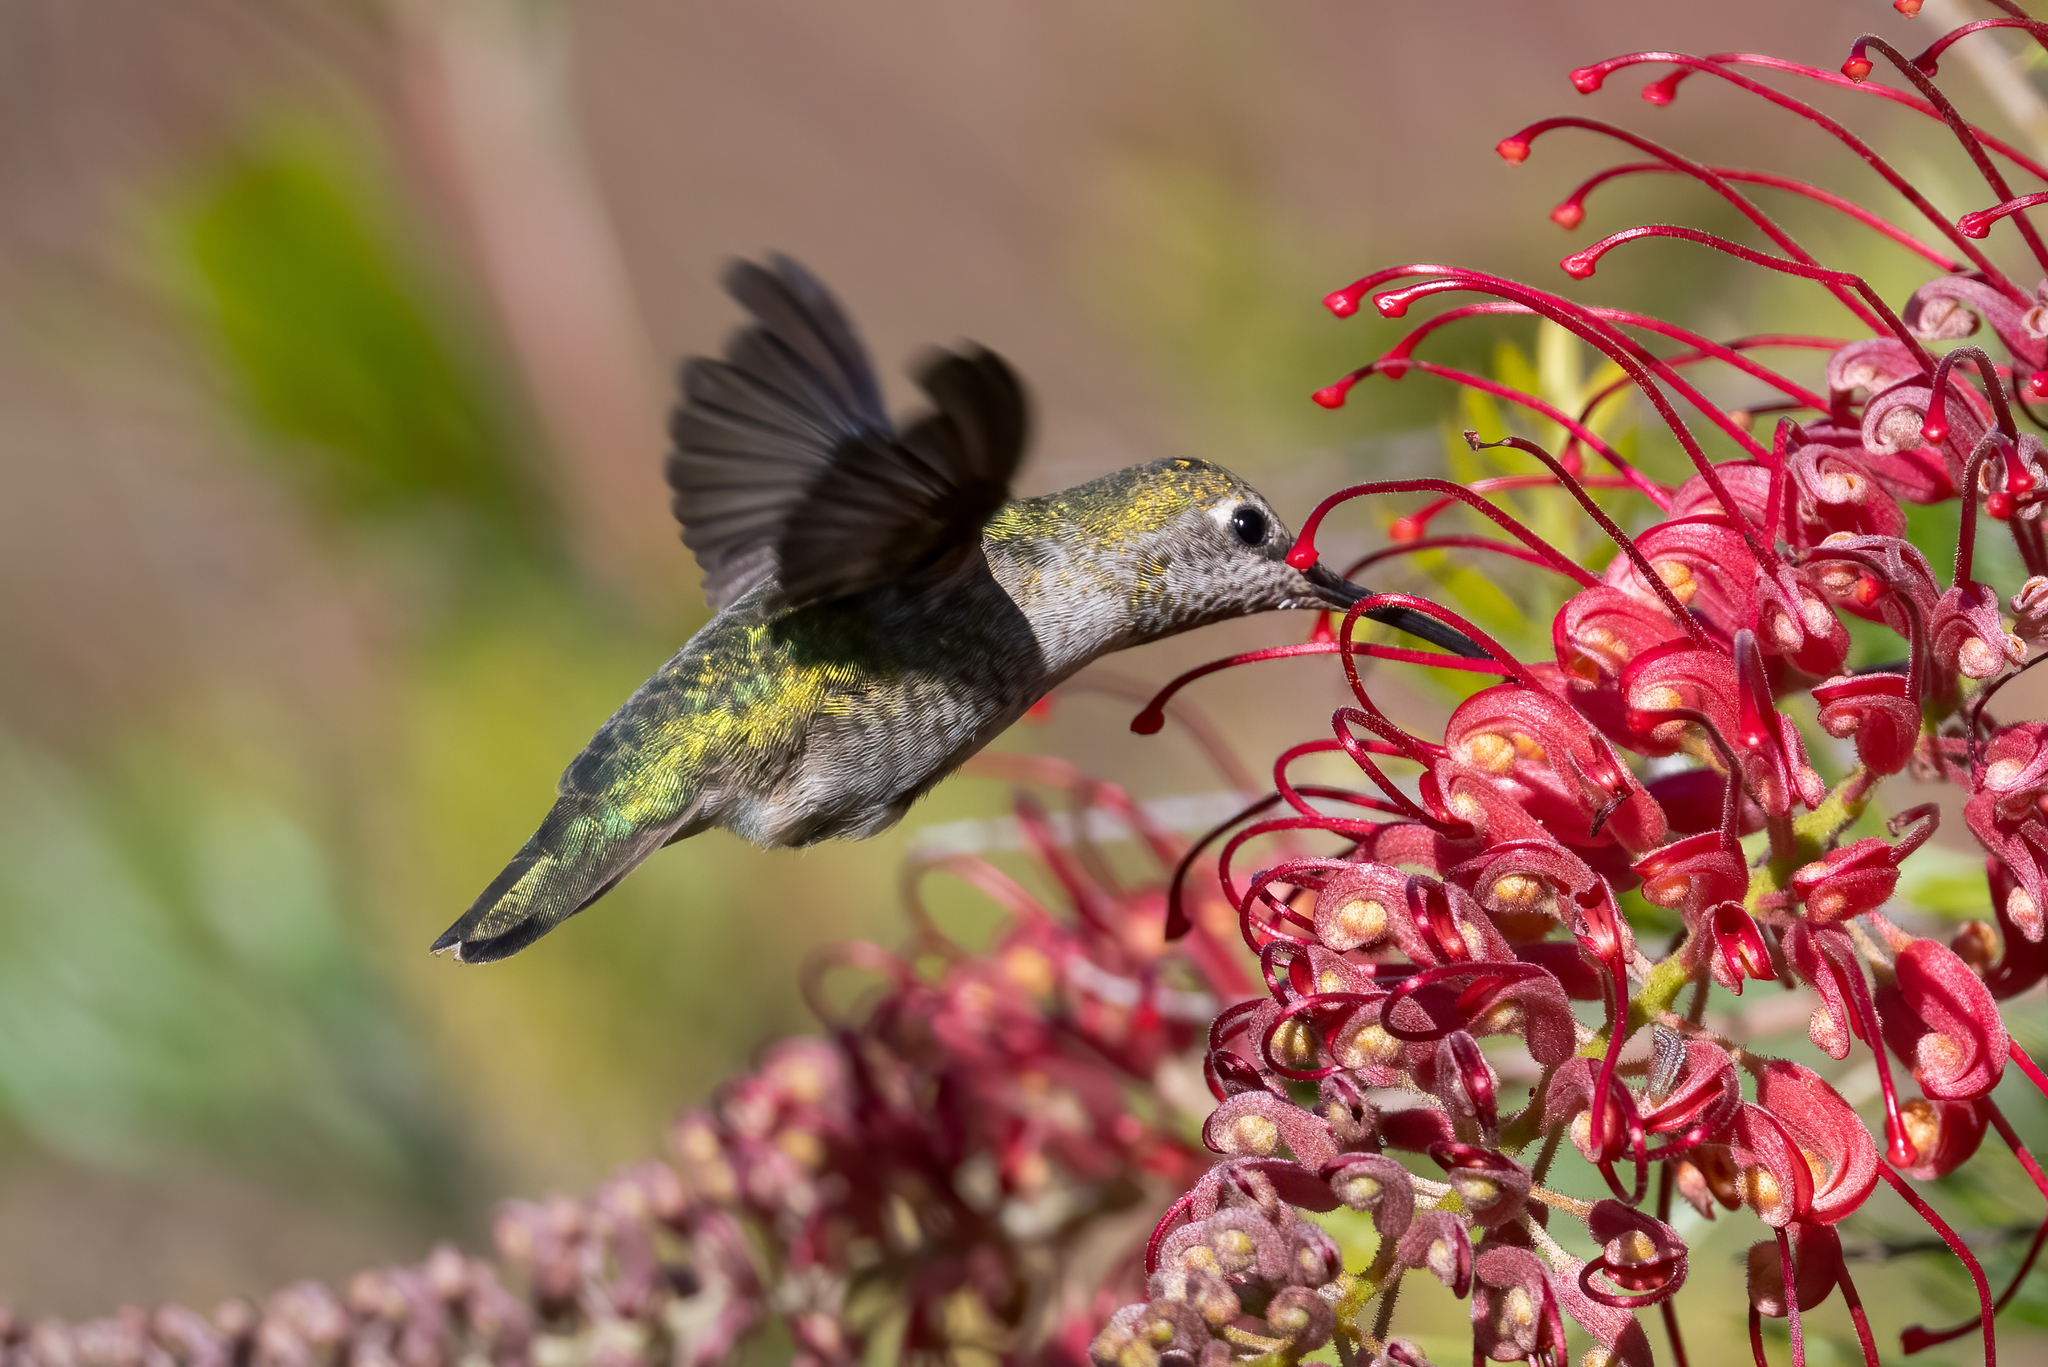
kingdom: Animalia
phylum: Chordata
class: Aves
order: Apodiformes
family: Trochilidae
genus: Calypte
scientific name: Calypte anna
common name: Anna's hummingbird
